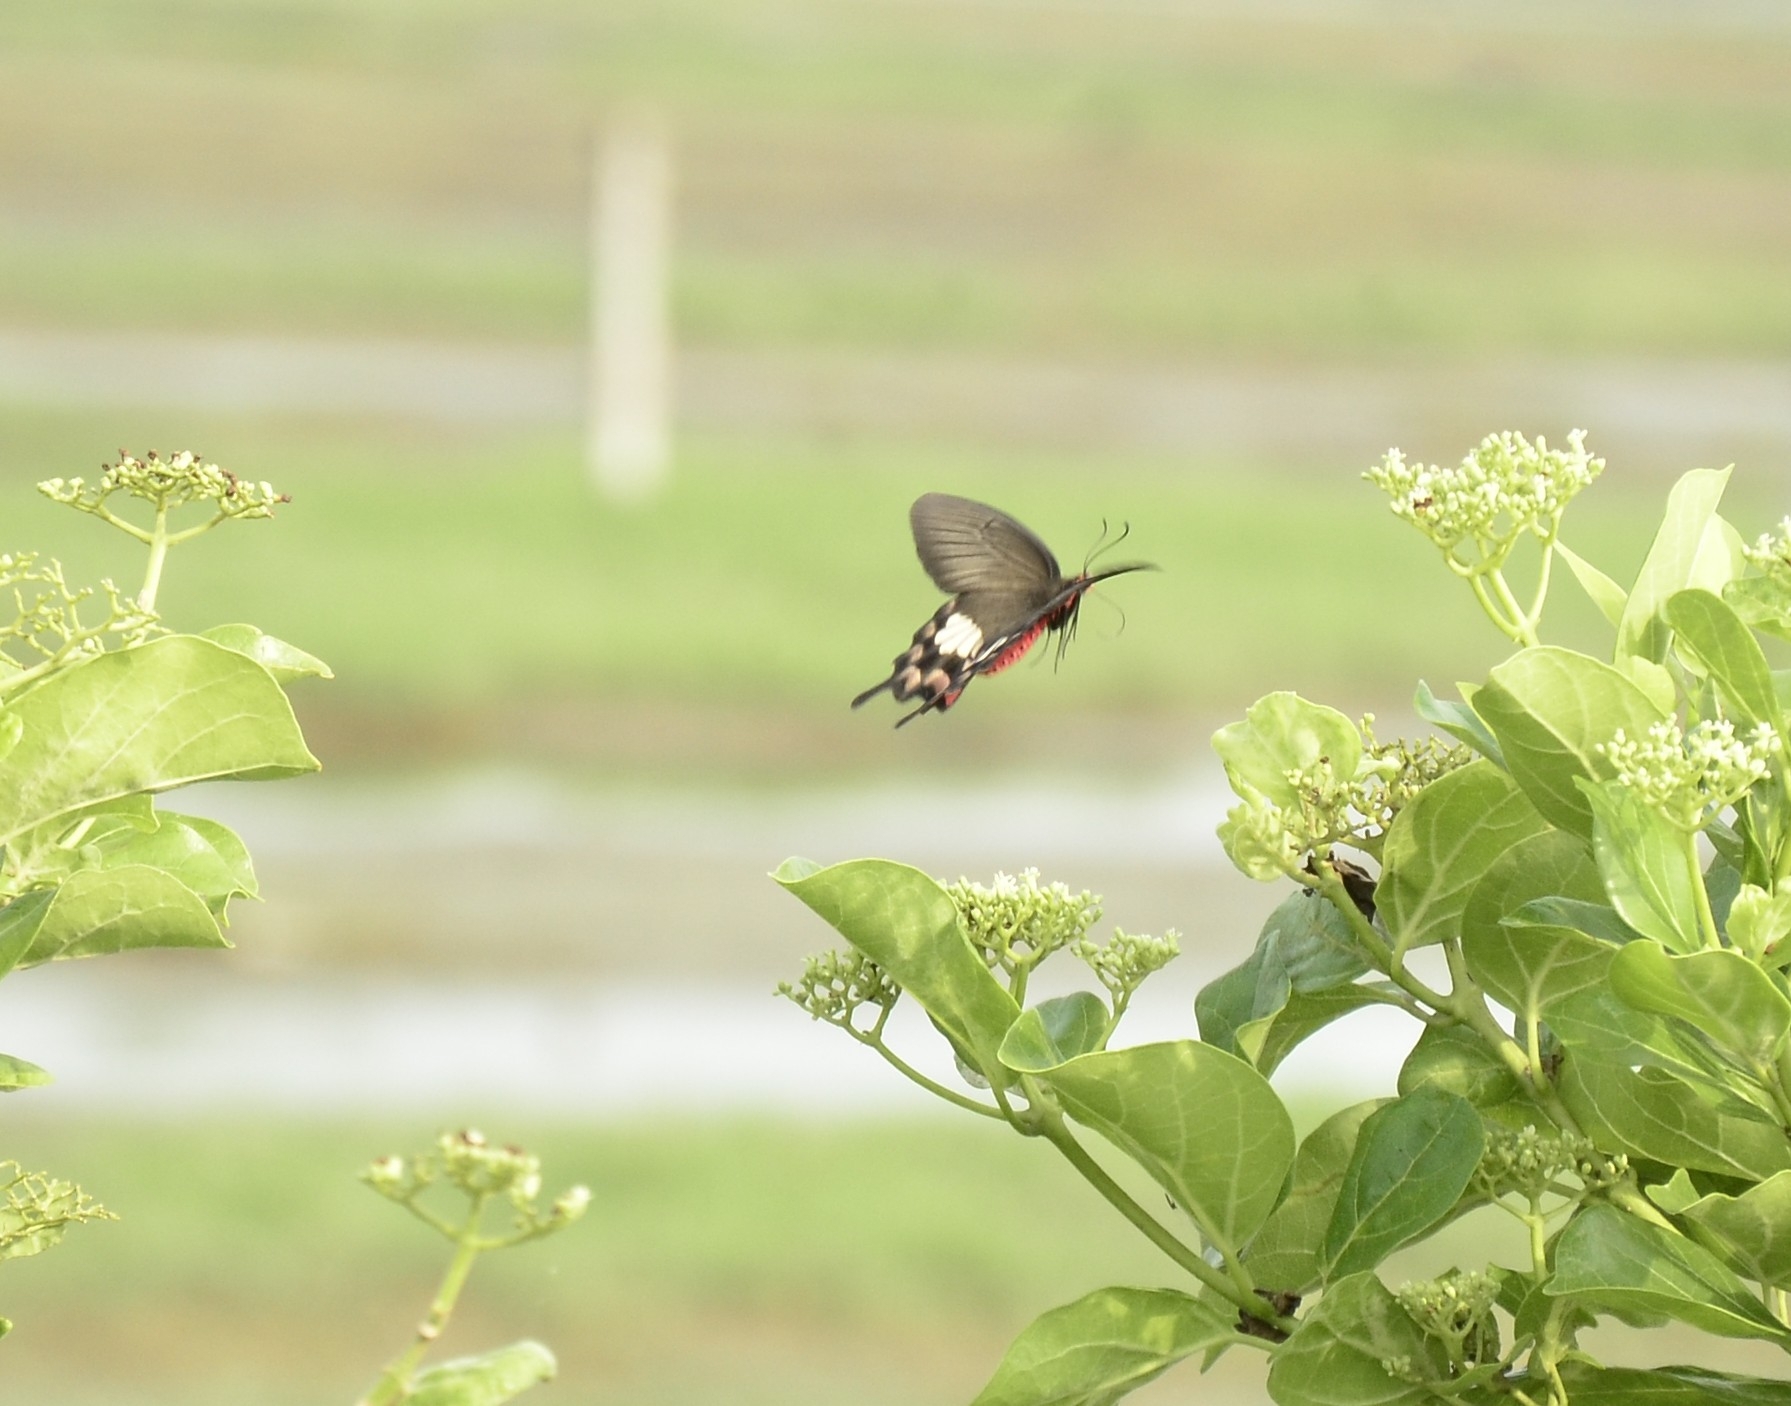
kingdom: Animalia
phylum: Arthropoda
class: Insecta
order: Lepidoptera
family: Papilionidae
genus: Pachliopta
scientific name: Pachliopta aristolochiae
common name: Common rose
